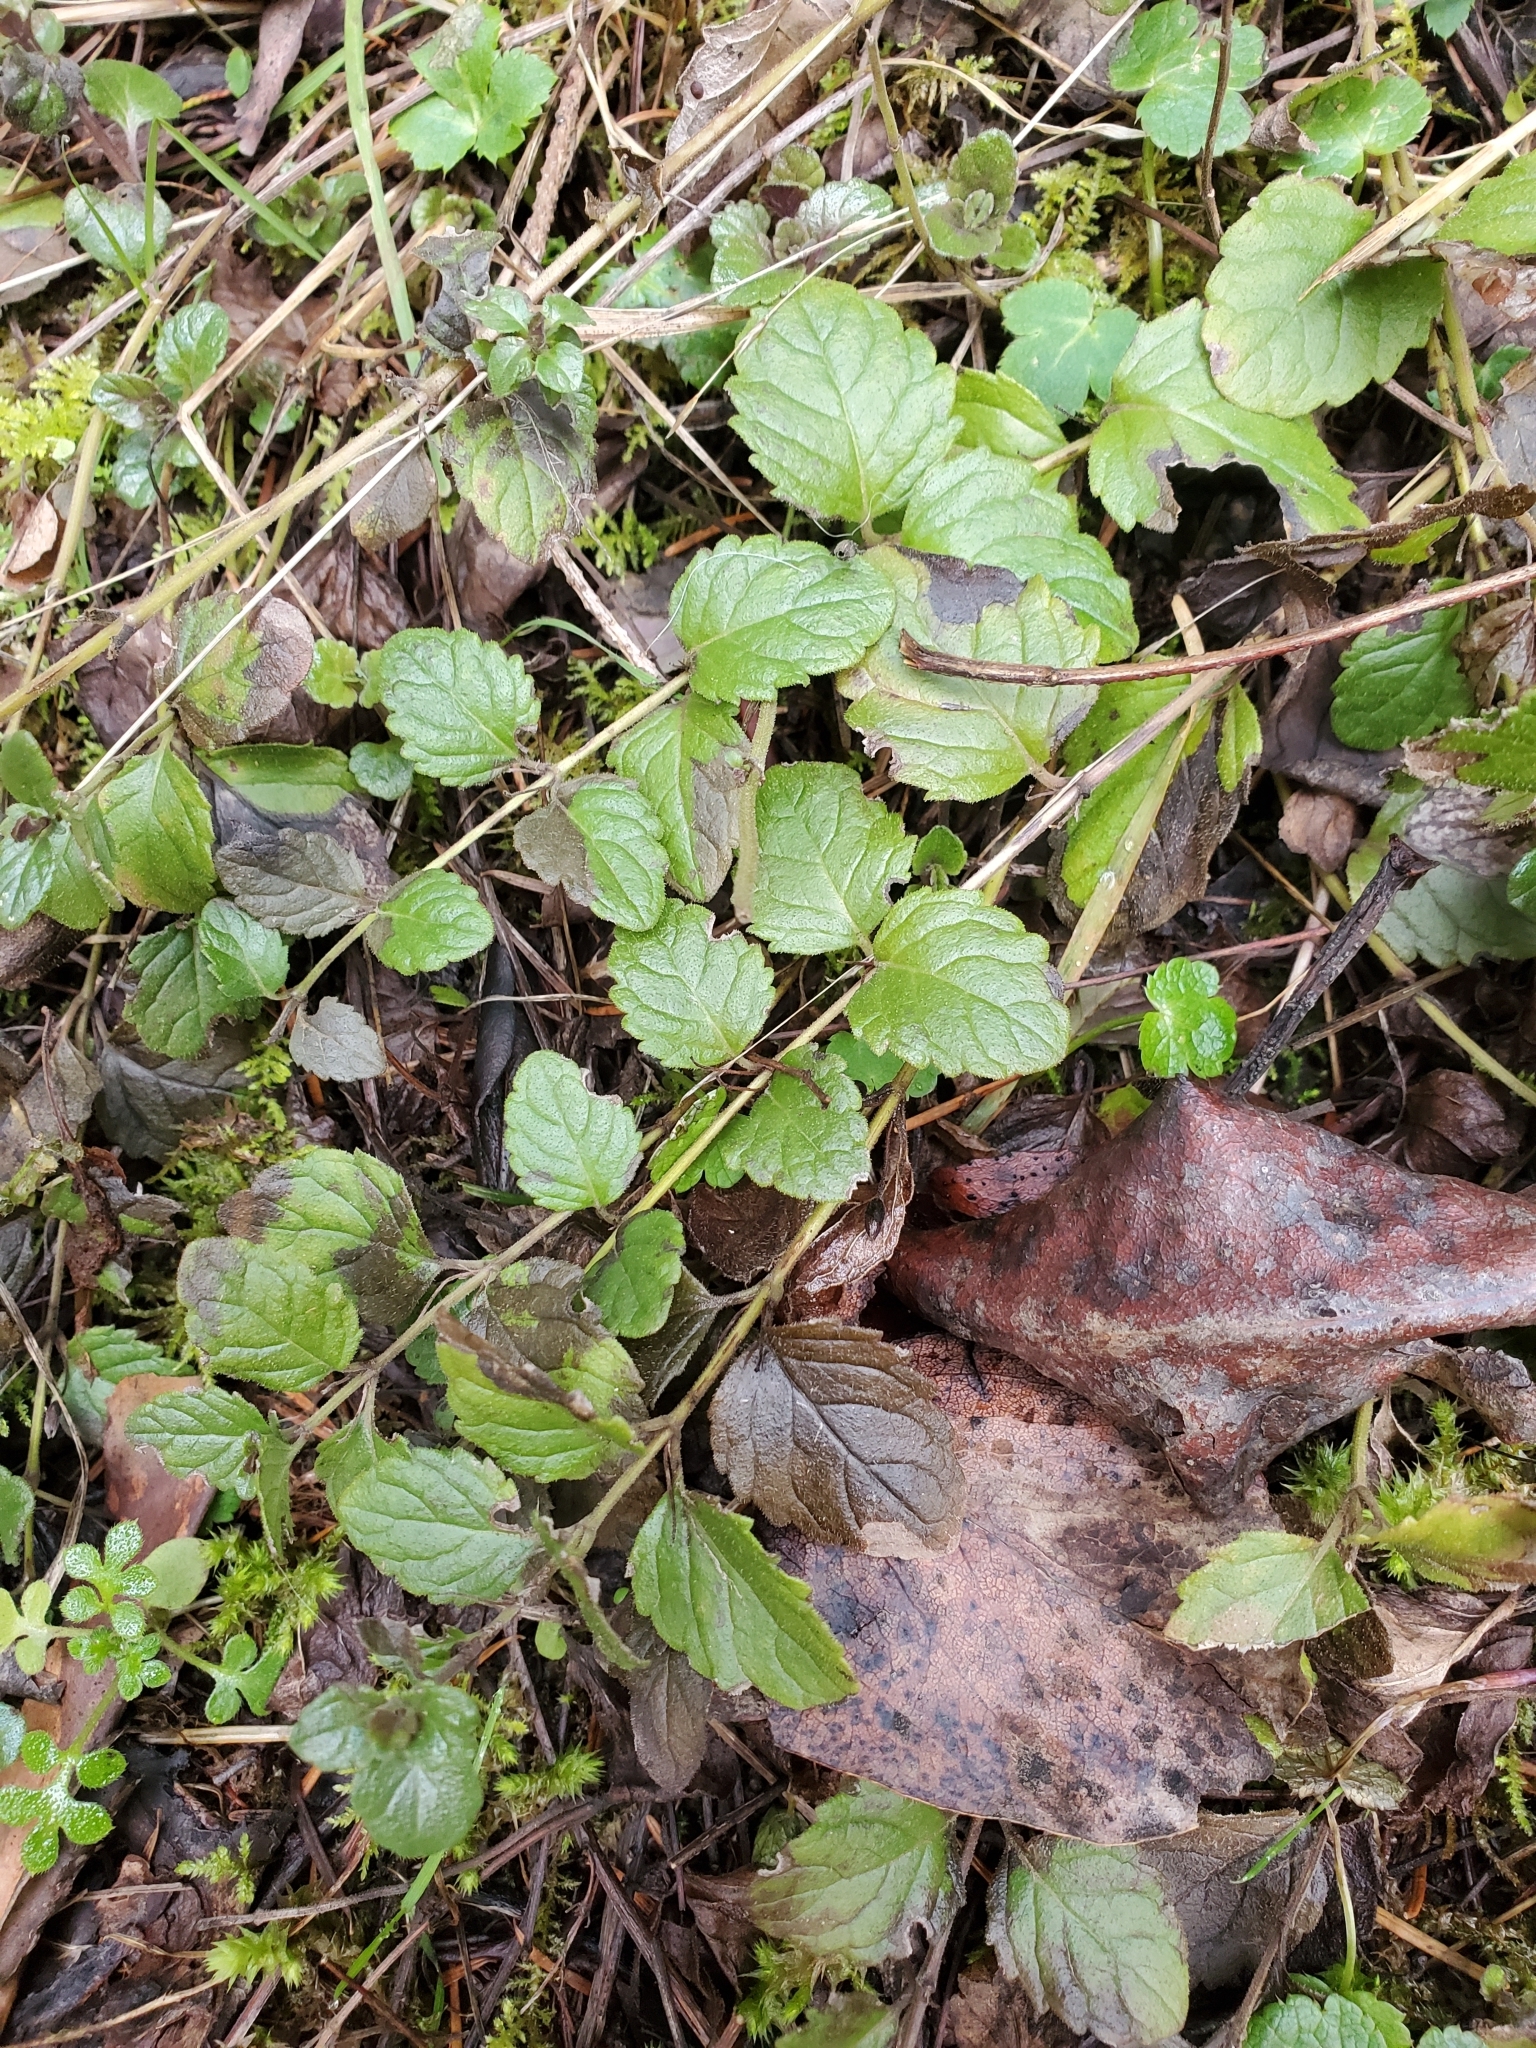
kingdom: Plantae
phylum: Tracheophyta
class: Magnoliopsida
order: Lamiales
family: Lamiaceae
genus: Micromeria
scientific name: Micromeria douglasii
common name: Yerba buena
